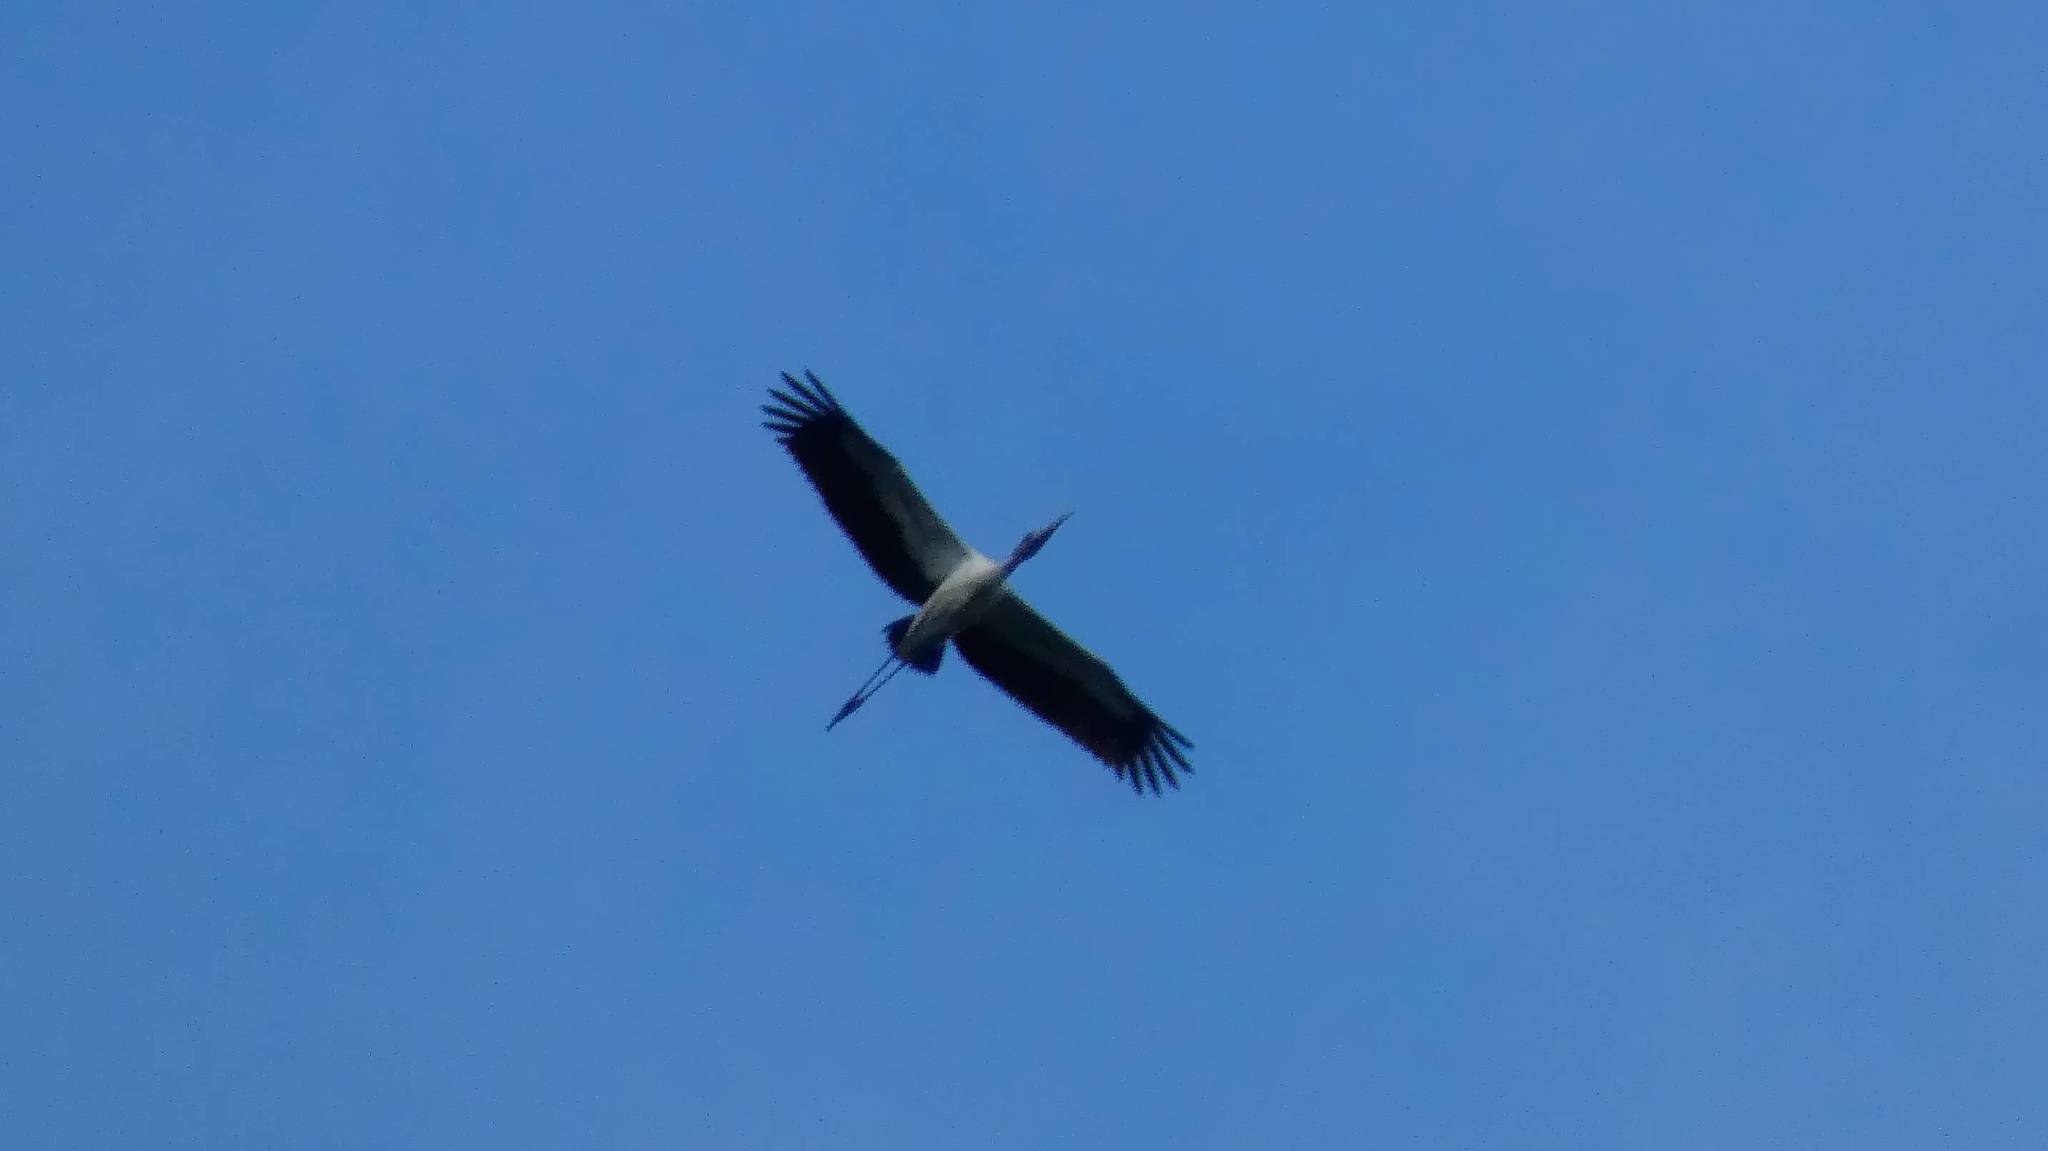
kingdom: Animalia
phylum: Chordata
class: Aves
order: Ciconiiformes
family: Ciconiidae
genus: Mycteria
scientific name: Mycteria americana
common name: Wood stork
